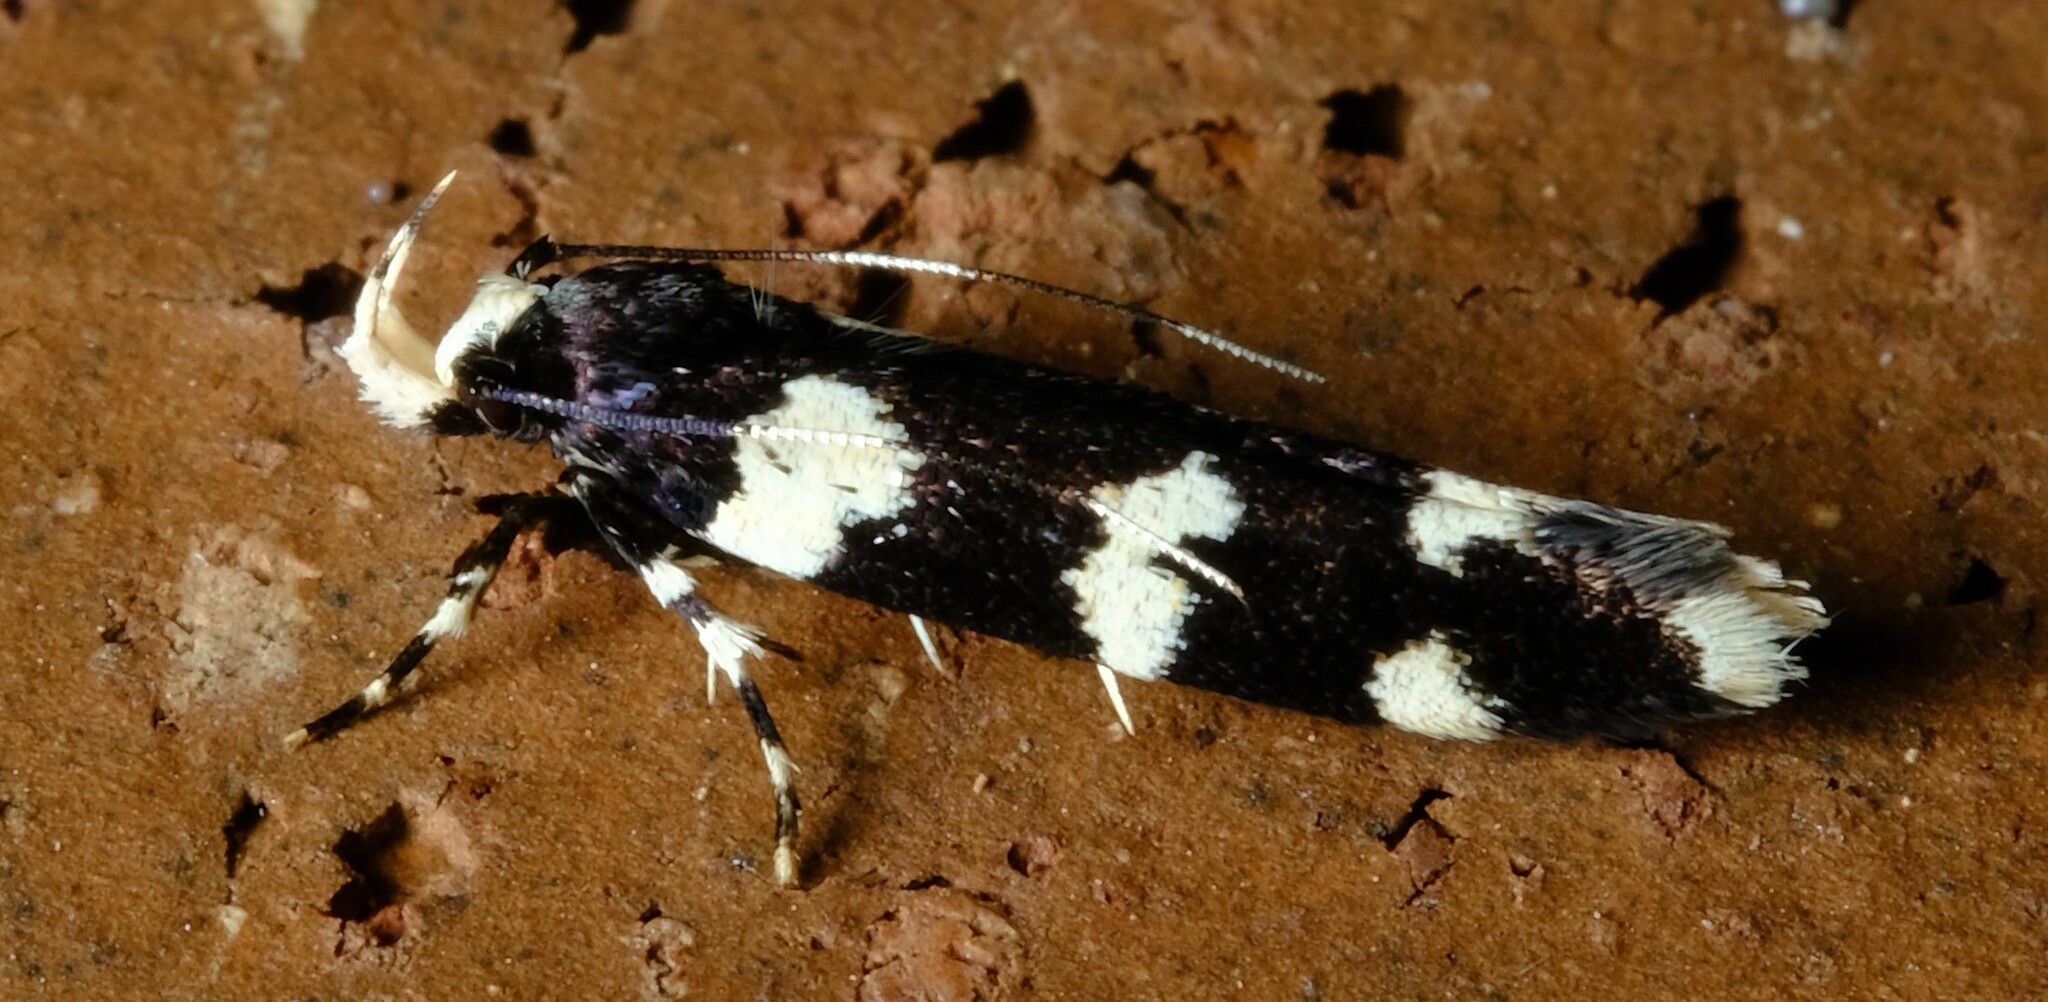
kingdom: Animalia
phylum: Arthropoda
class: Insecta
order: Lepidoptera
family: Cosmopterigidae
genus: Limnaecia
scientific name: Limnaecia cirrhosema
